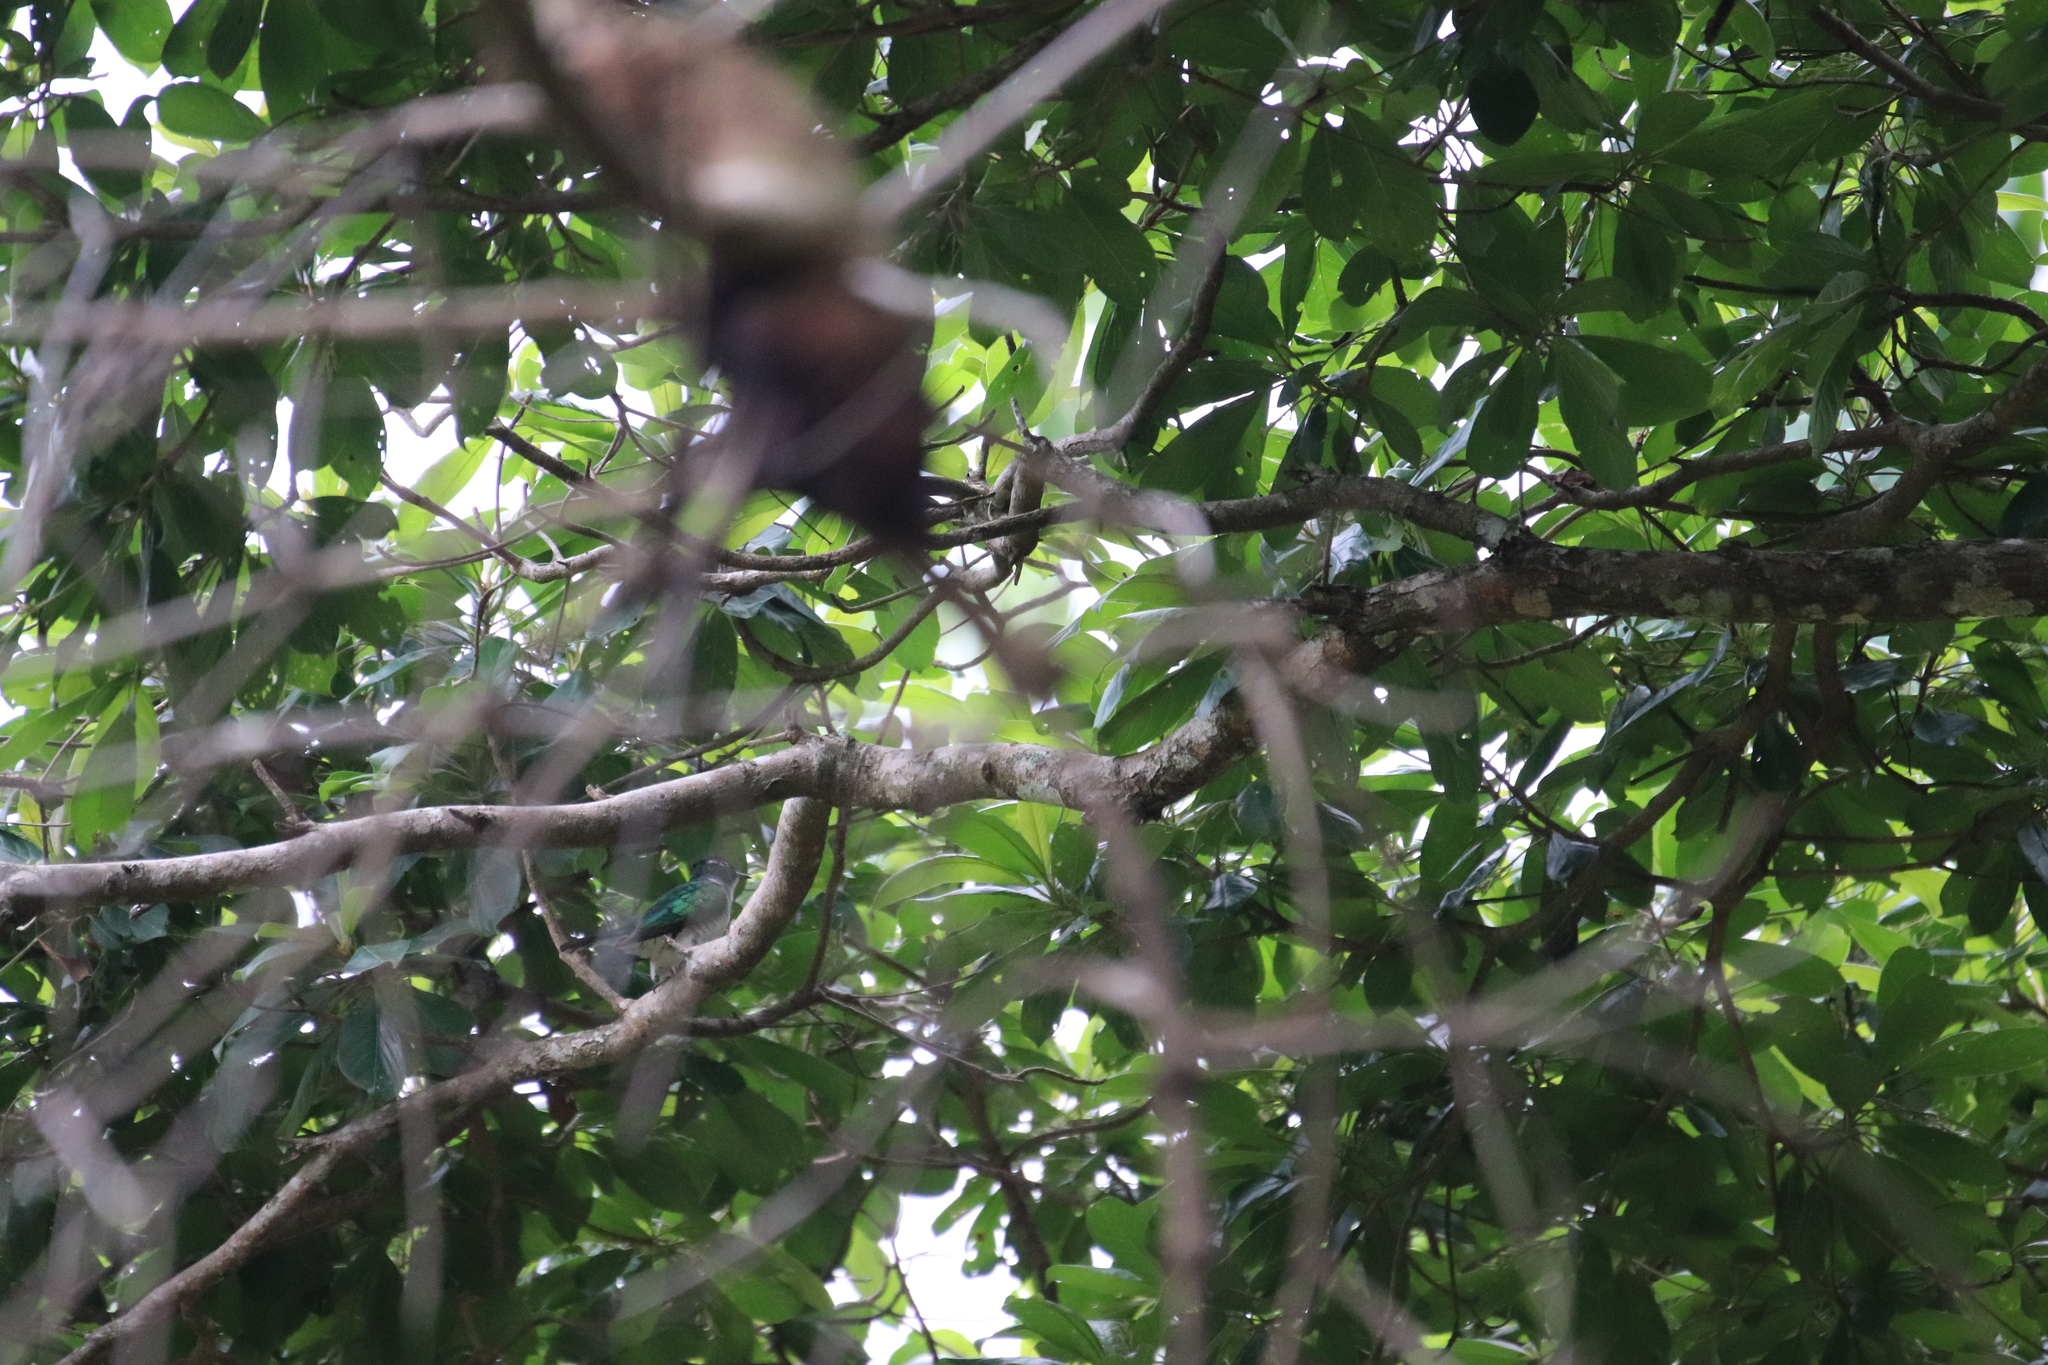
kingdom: Animalia
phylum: Chordata
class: Aves
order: Cuculiformes
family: Cuculidae
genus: Chrysococcyx
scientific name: Chrysococcyx klaas
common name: Klaas's cuckoo
